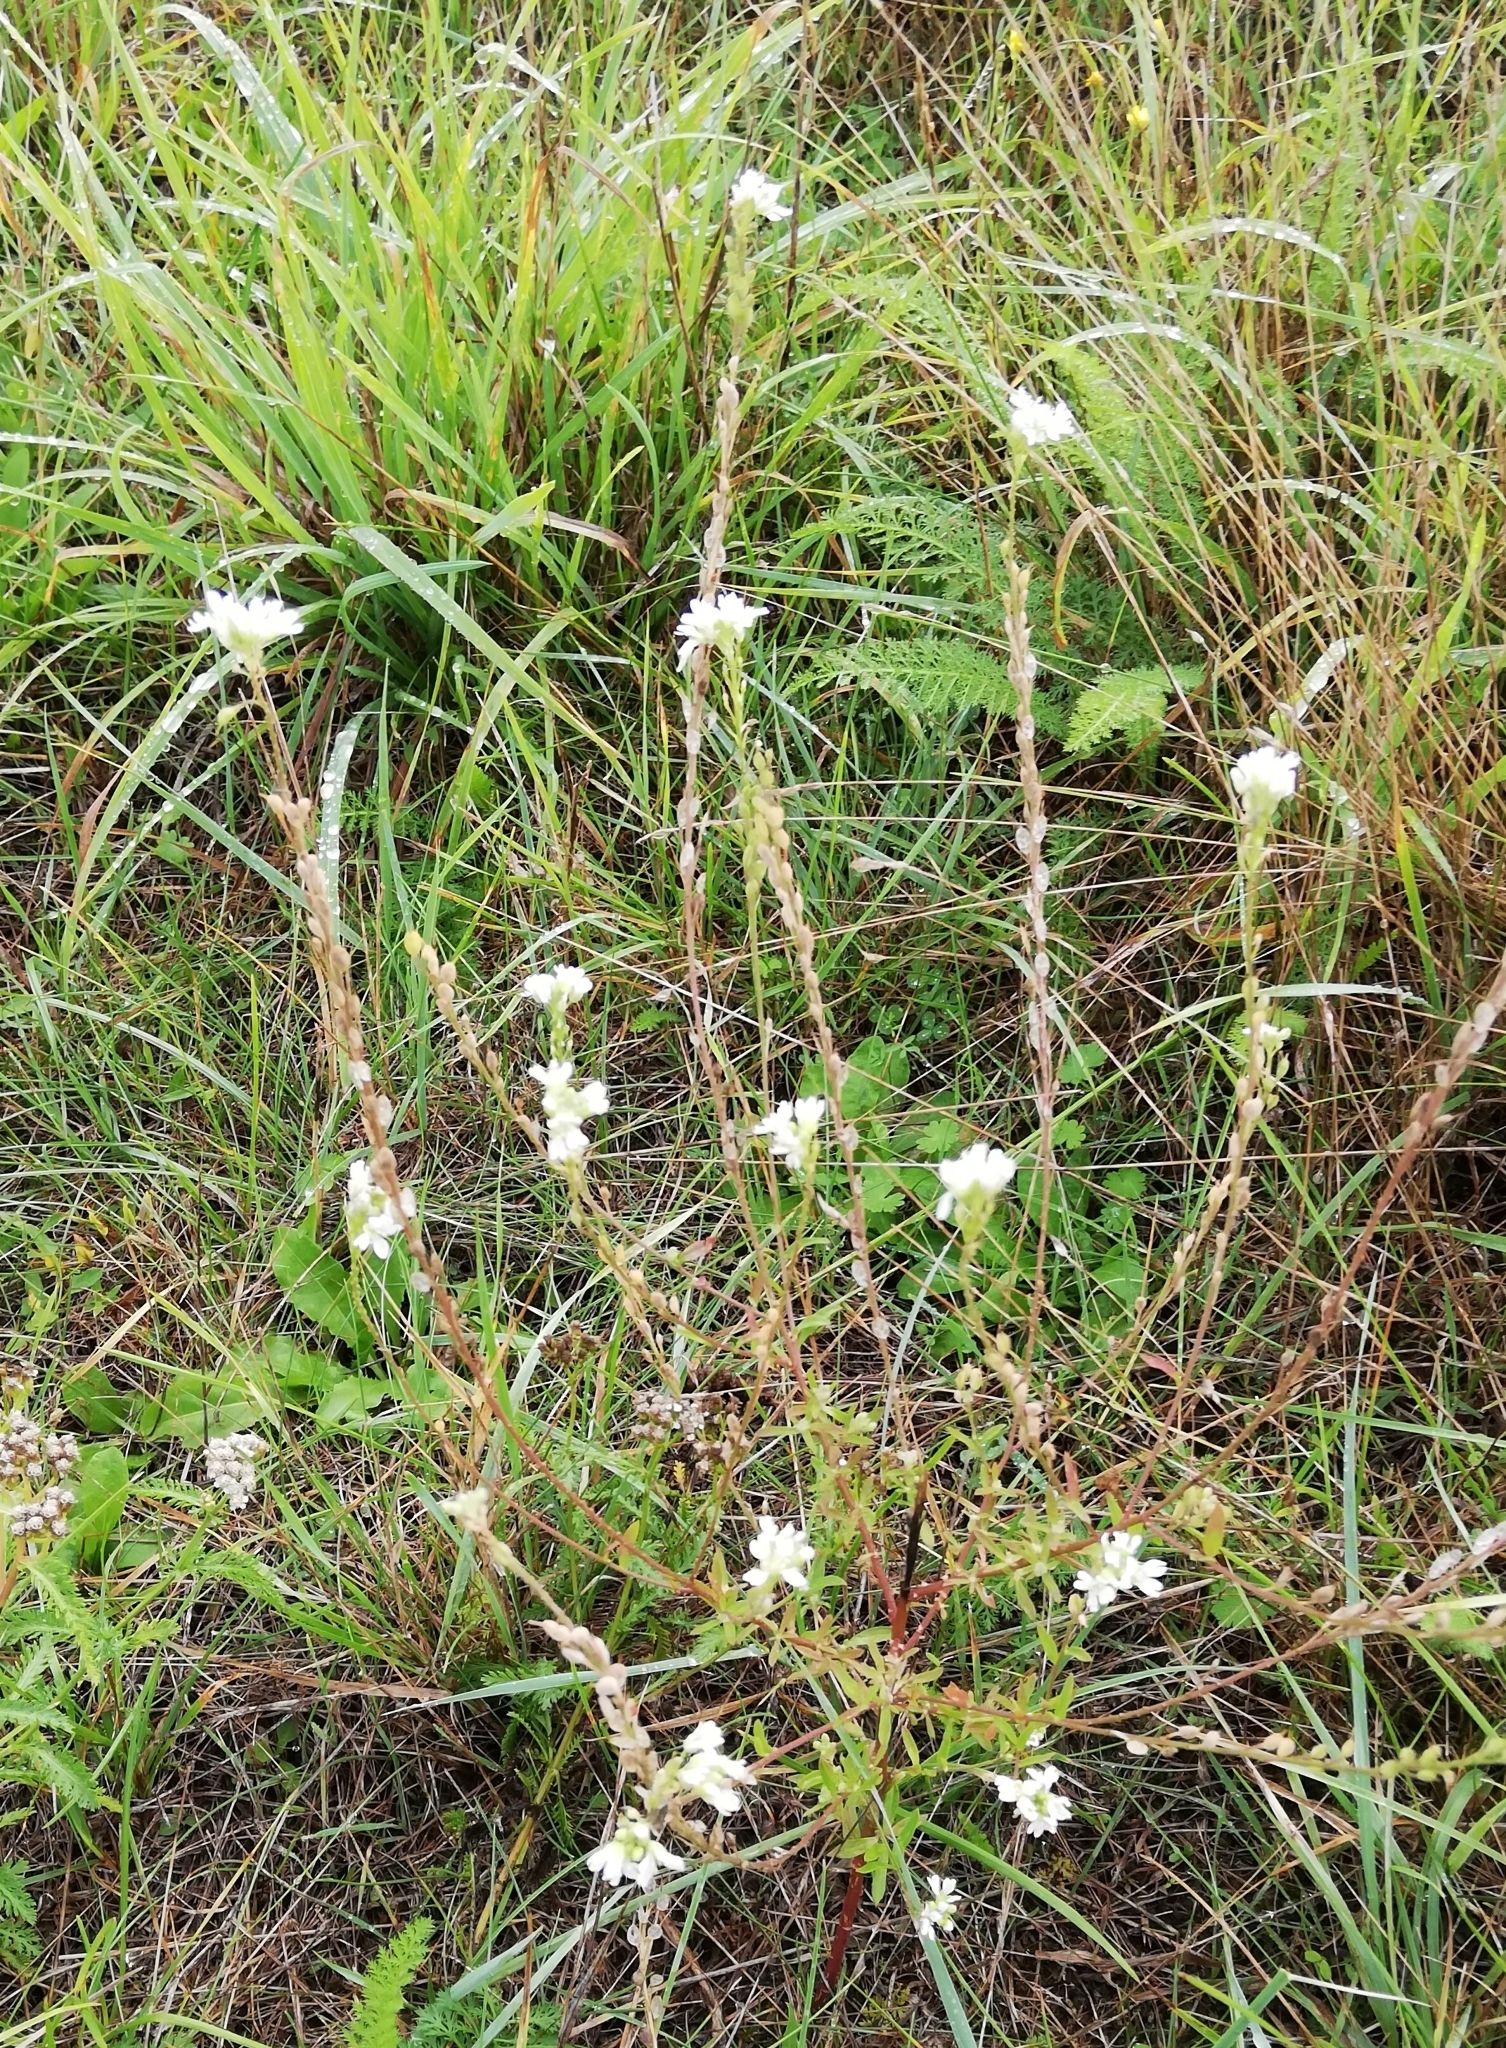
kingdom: Plantae
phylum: Tracheophyta
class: Magnoliopsida
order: Brassicales
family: Brassicaceae
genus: Berteroa
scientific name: Berteroa incana
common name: Hoary alison
